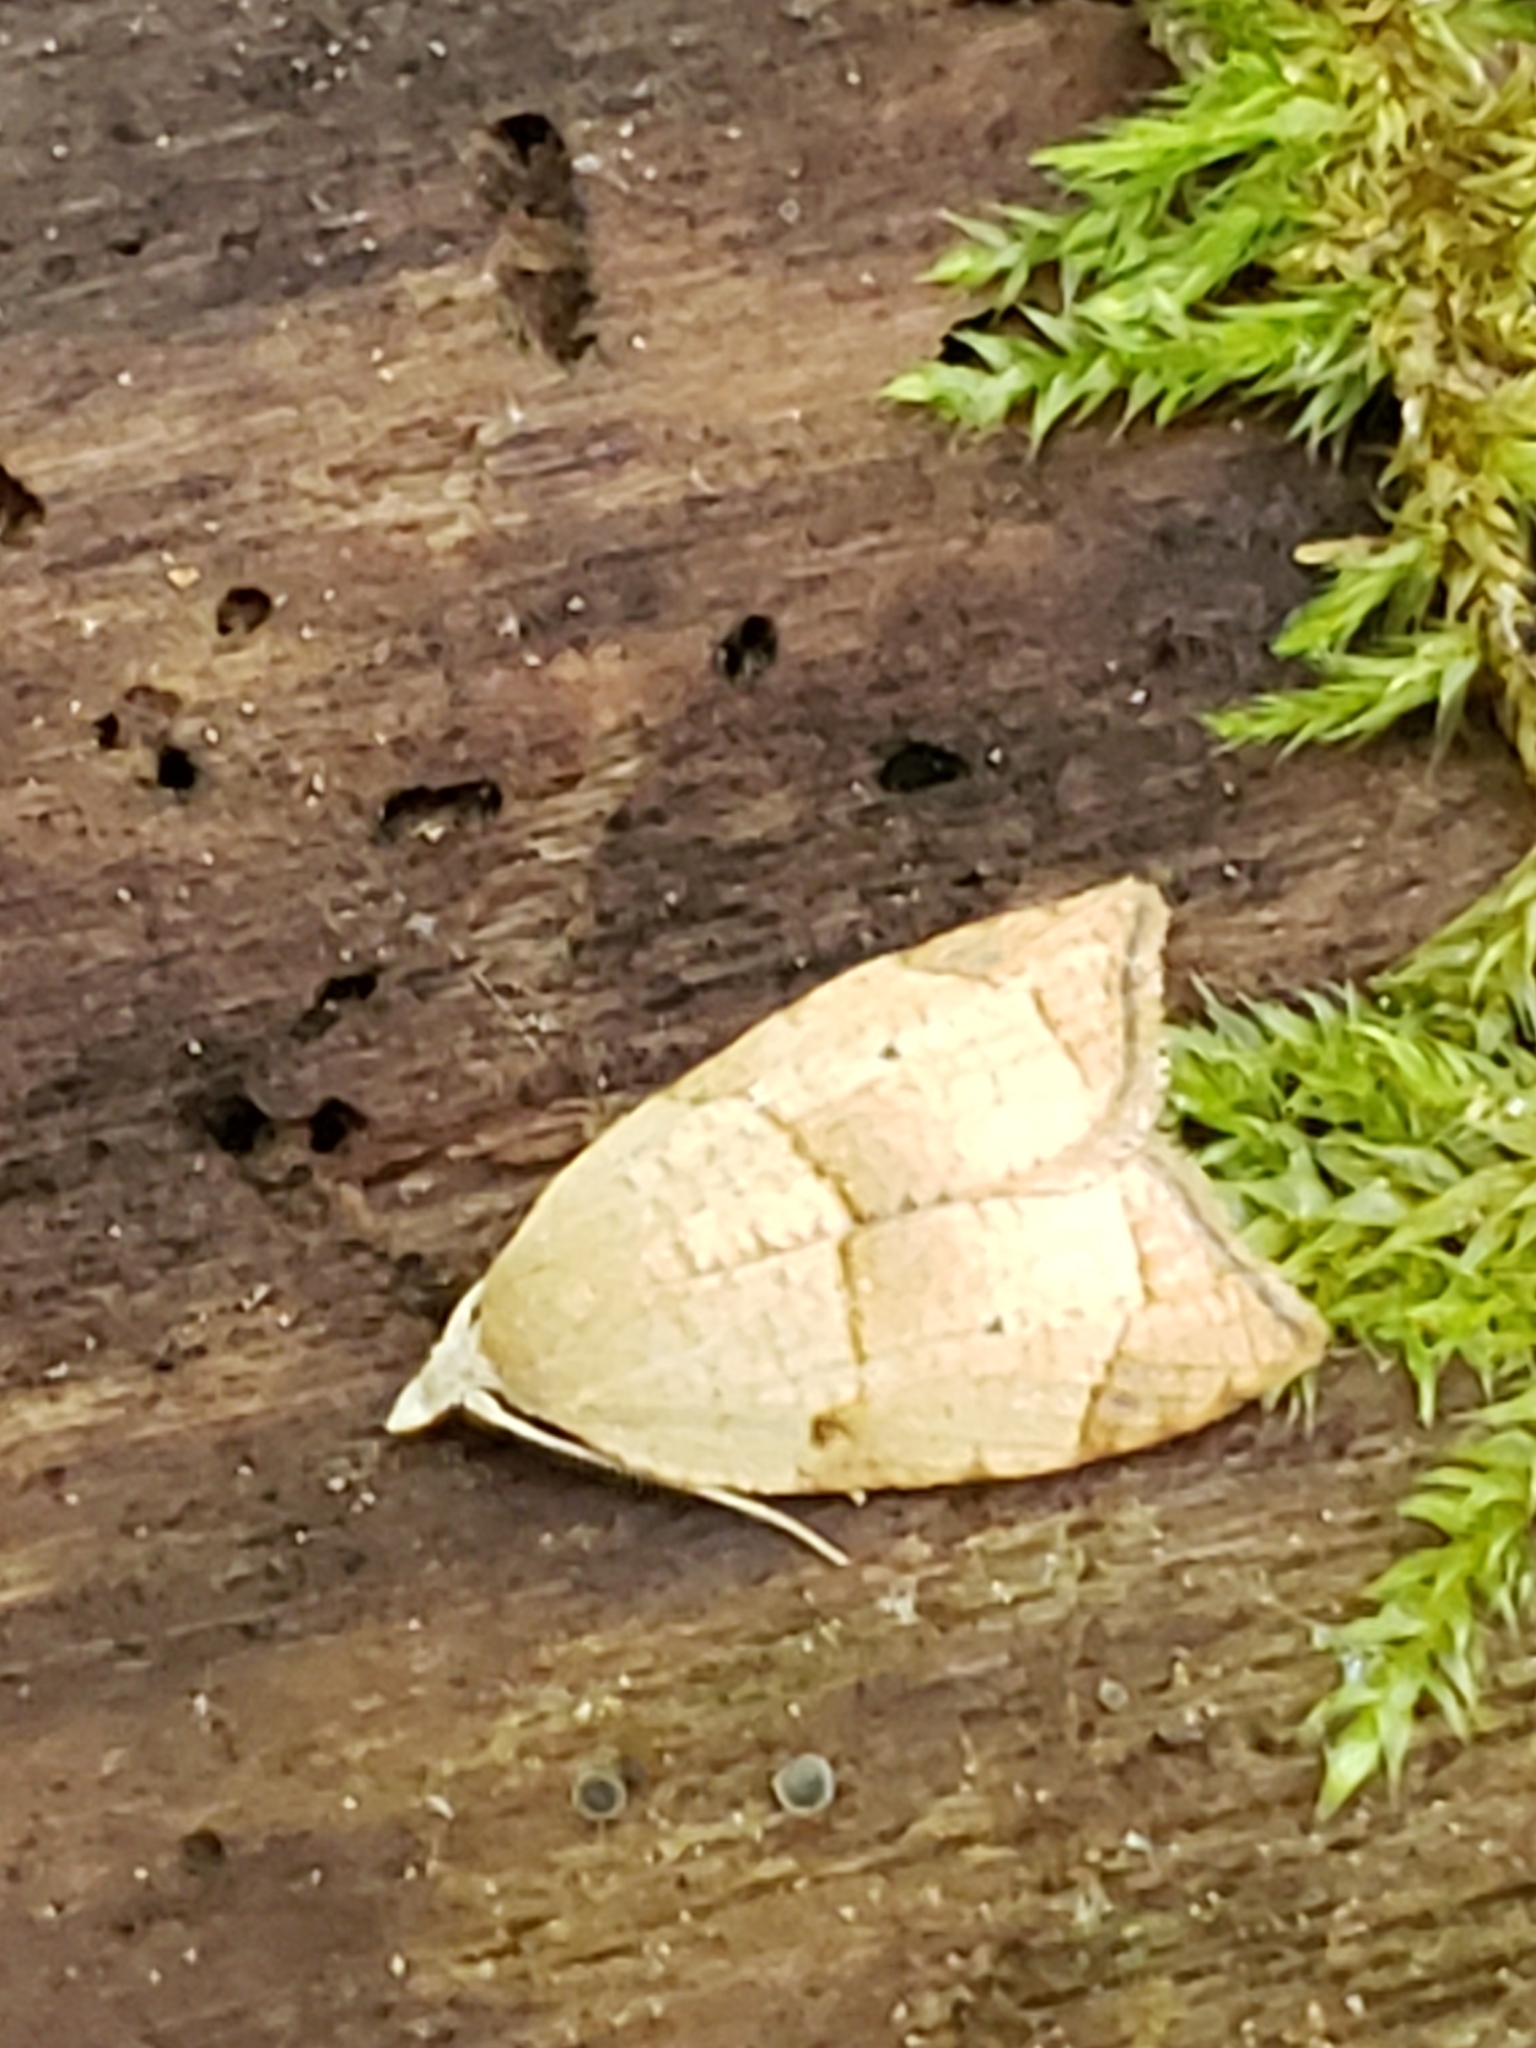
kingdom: Animalia
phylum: Arthropoda
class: Insecta
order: Lepidoptera
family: Tortricidae
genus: Coelostathma
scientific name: Coelostathma discopunctana
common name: Batman moth
